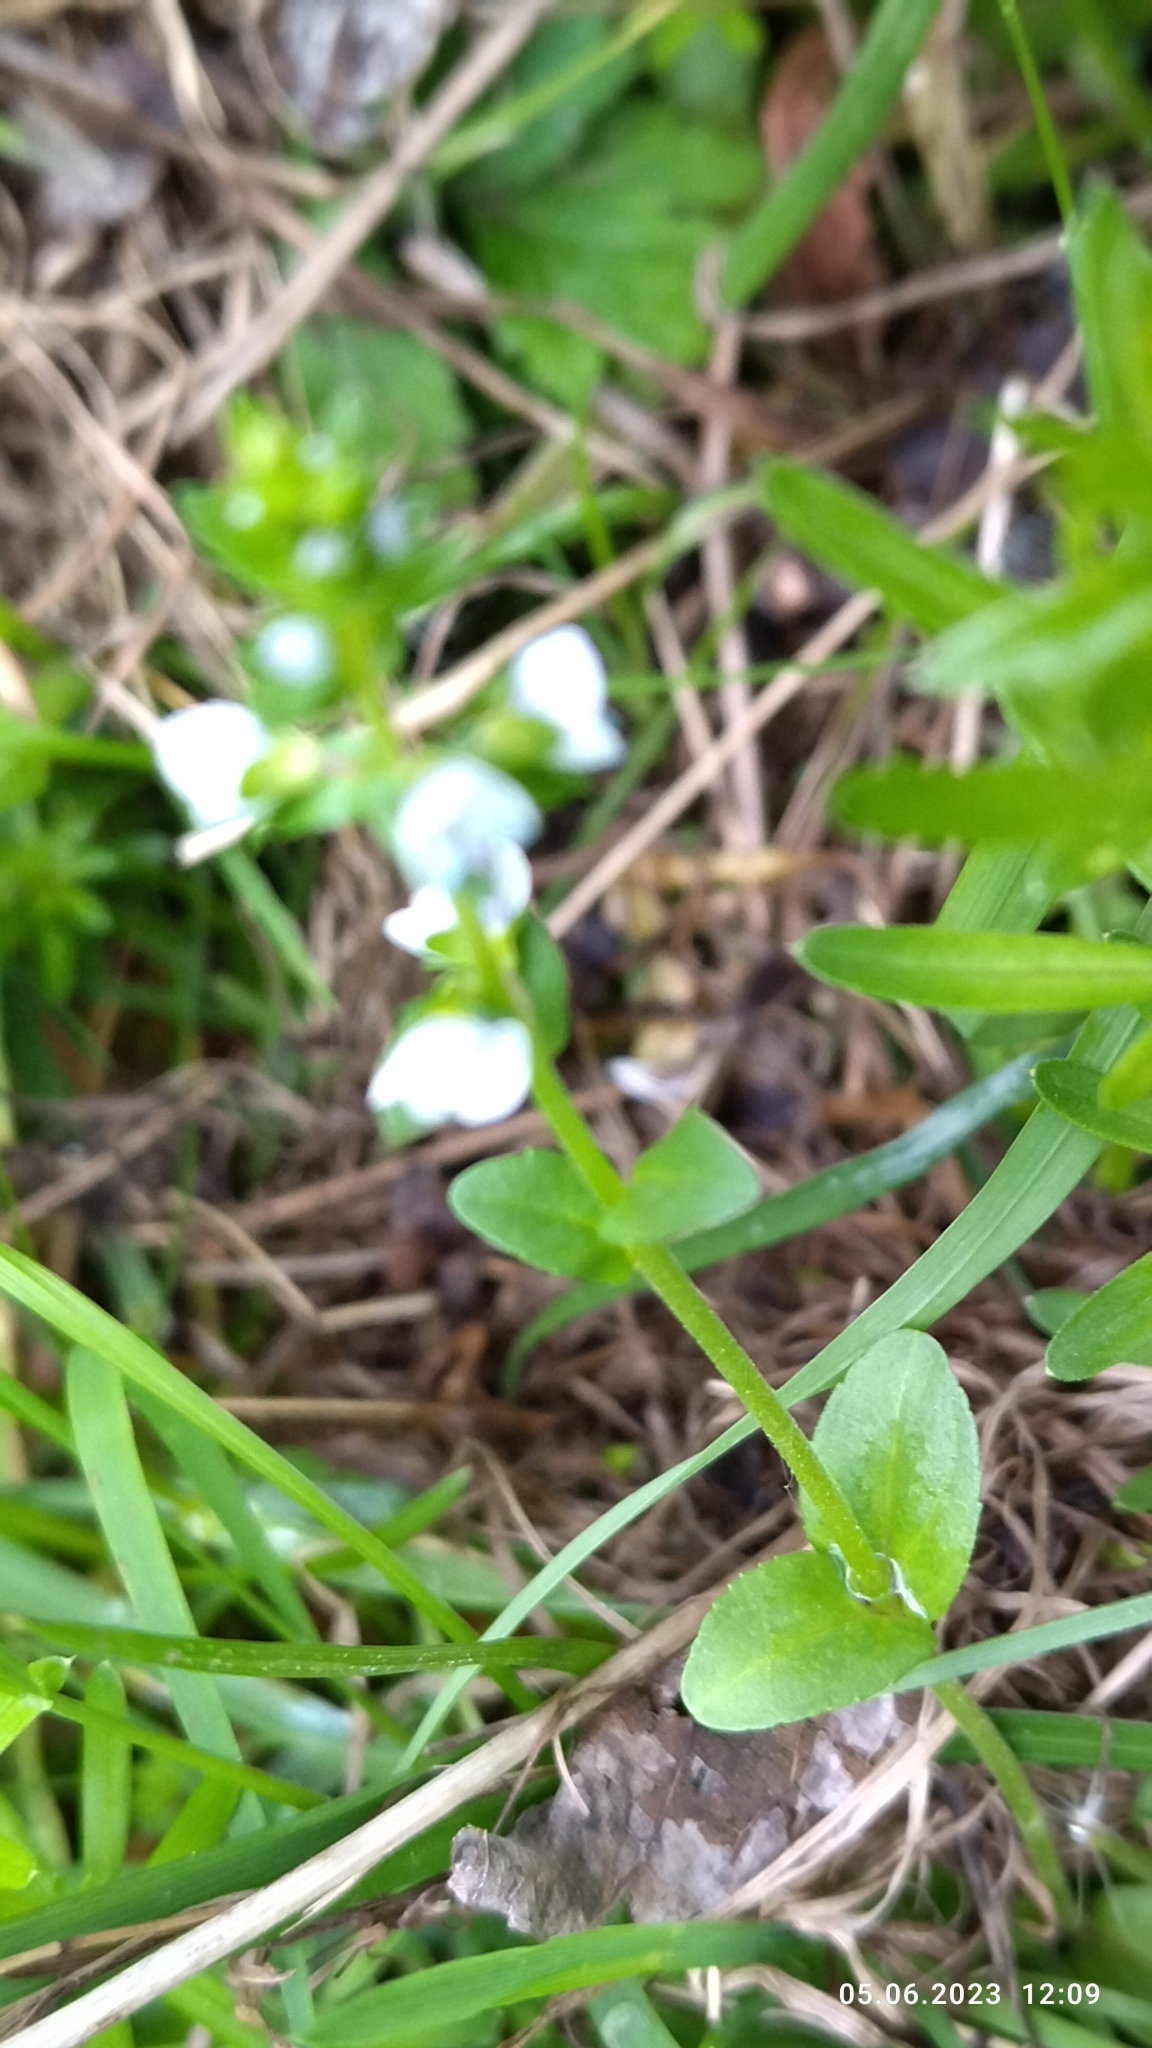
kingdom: Plantae
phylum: Tracheophyta
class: Magnoliopsida
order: Lamiales
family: Plantaginaceae
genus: Veronica
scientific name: Veronica serpyllifolia
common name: Thyme-leaved speedwell
